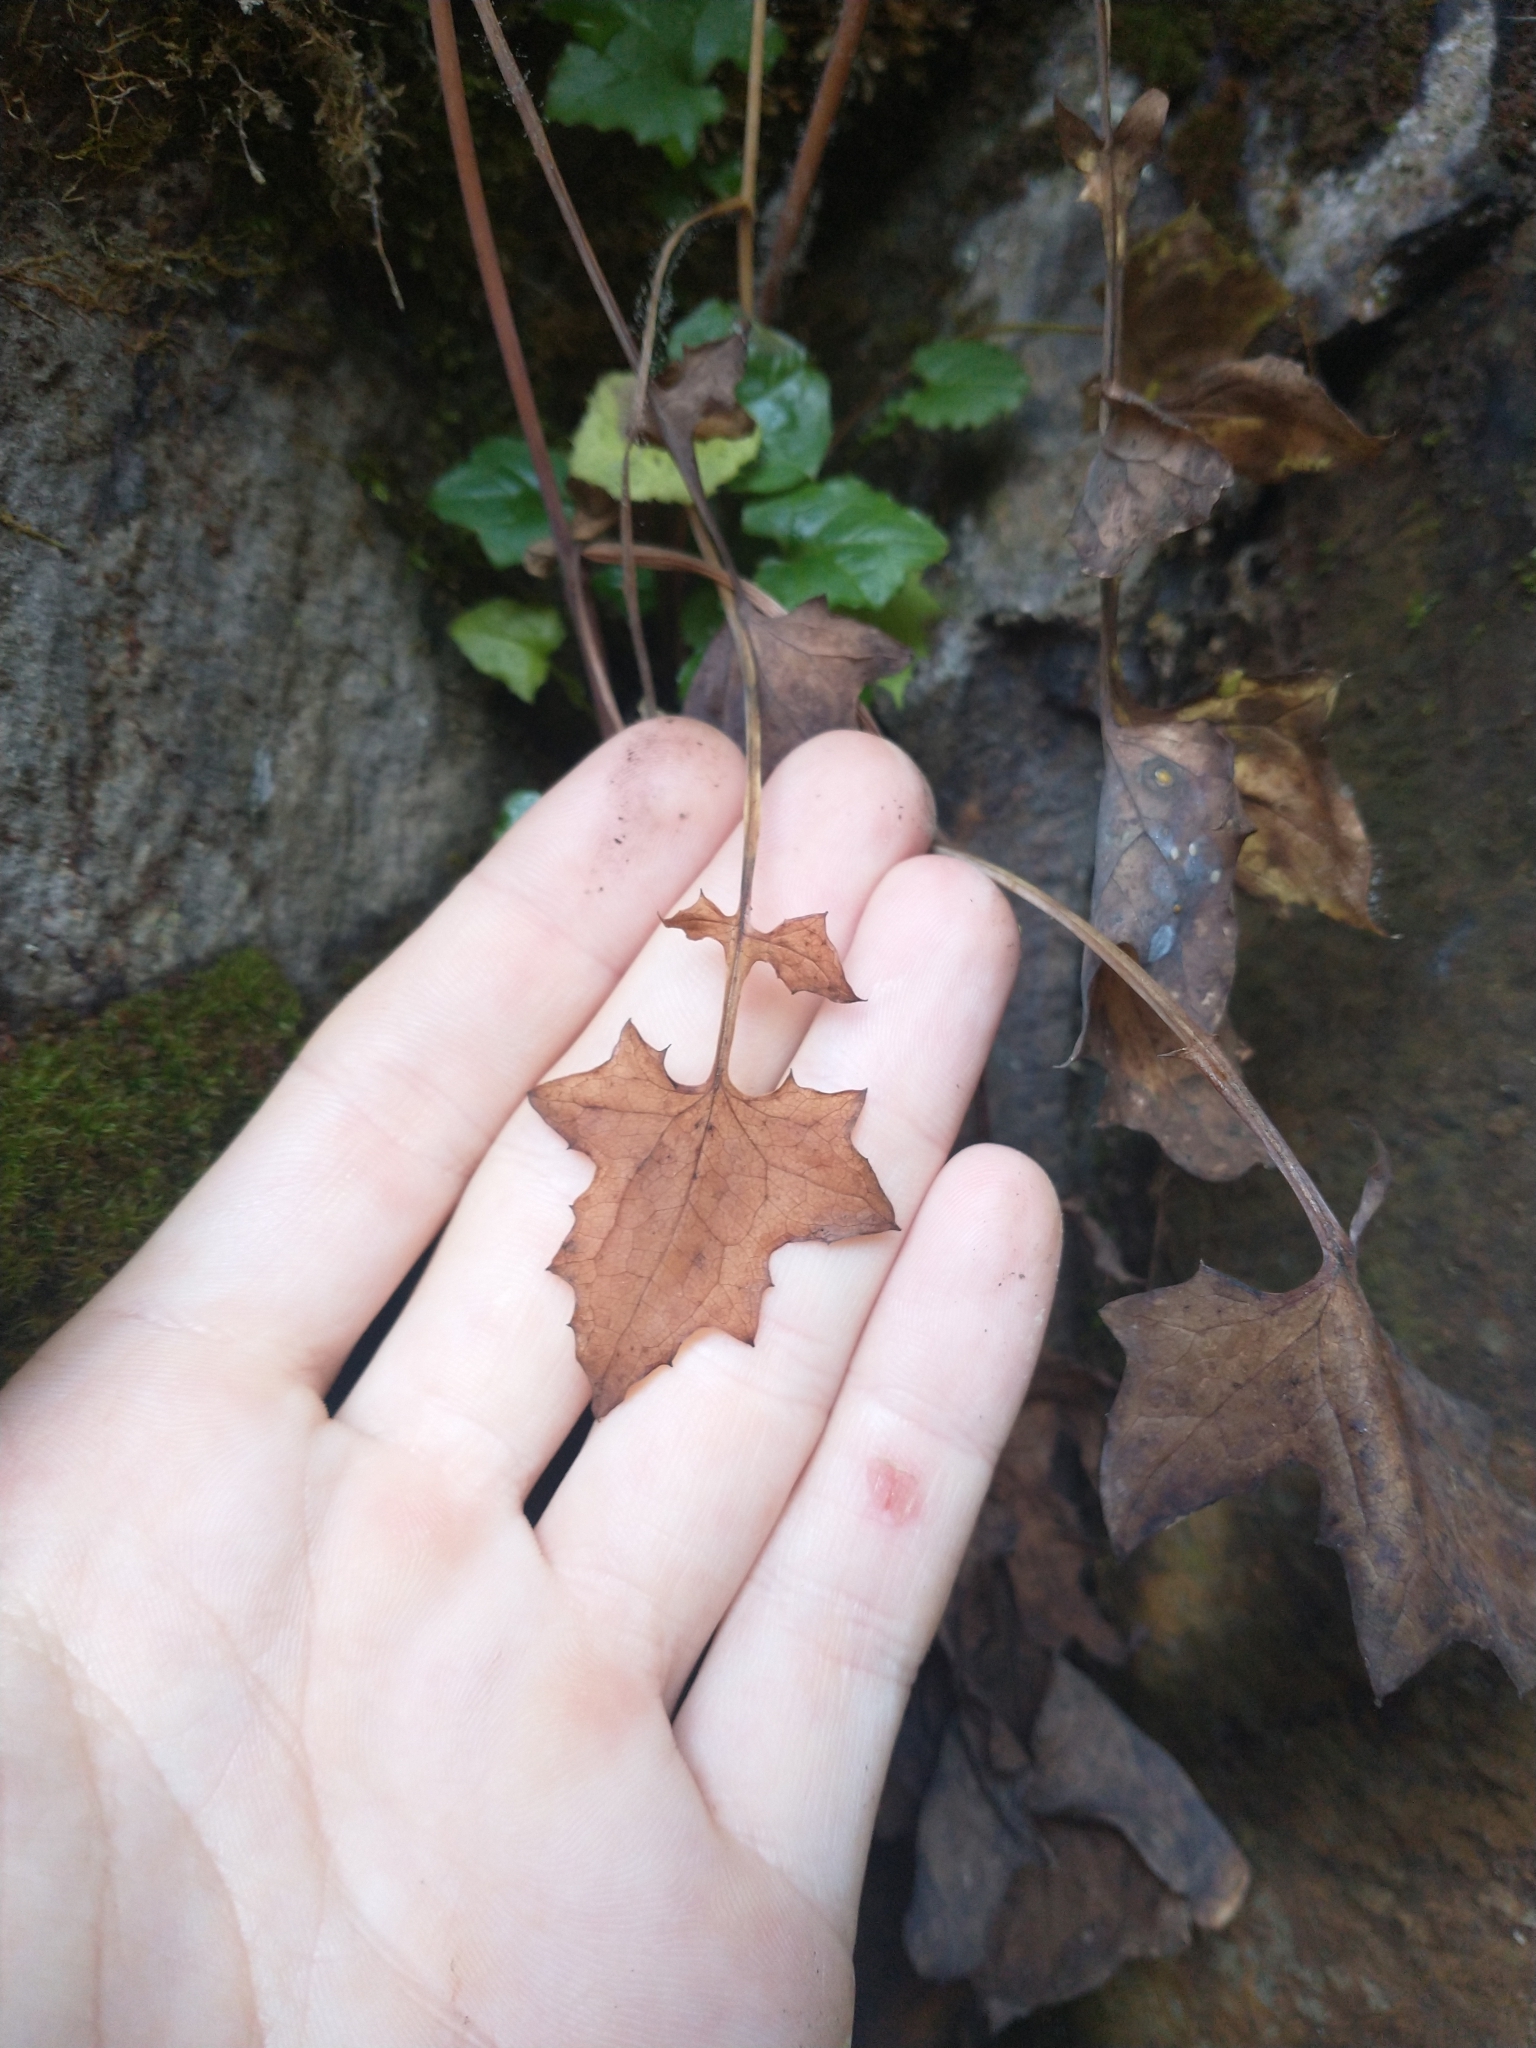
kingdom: Plantae
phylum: Tracheophyta
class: Magnoliopsida
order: Asterales
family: Asteraceae
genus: Mycelis
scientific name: Mycelis muralis
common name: Wall lettuce
